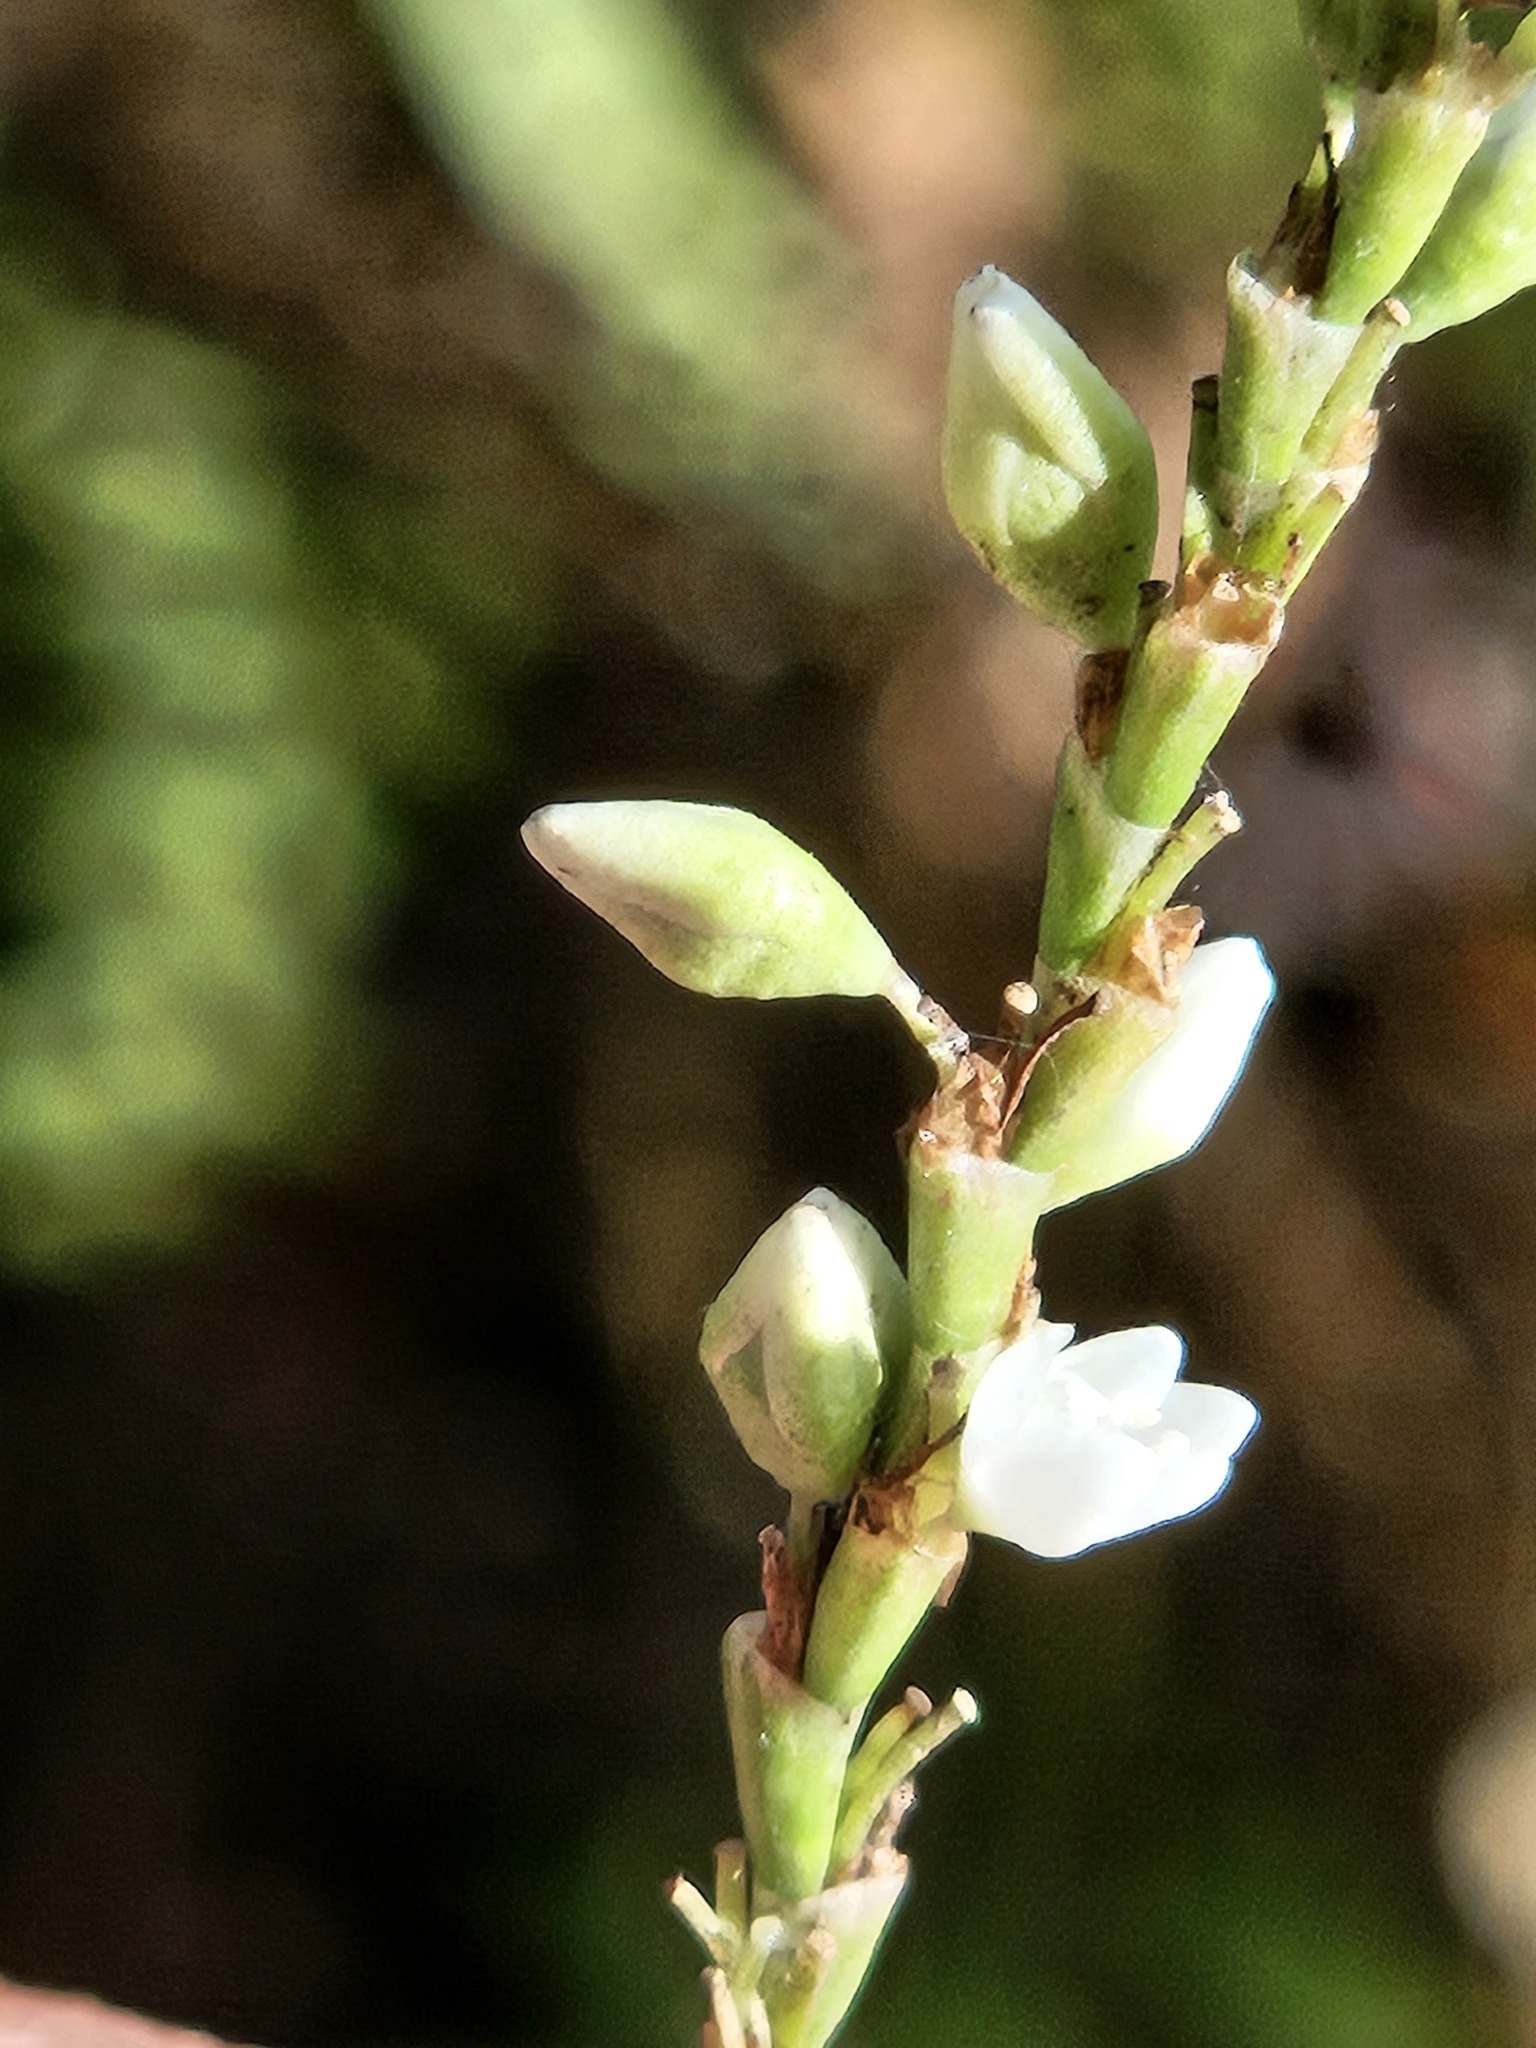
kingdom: Plantae
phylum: Tracheophyta
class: Magnoliopsida
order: Caryophyllales
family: Polygonaceae
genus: Persicaria
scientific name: Persicaria robustior
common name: Stout smartweed
